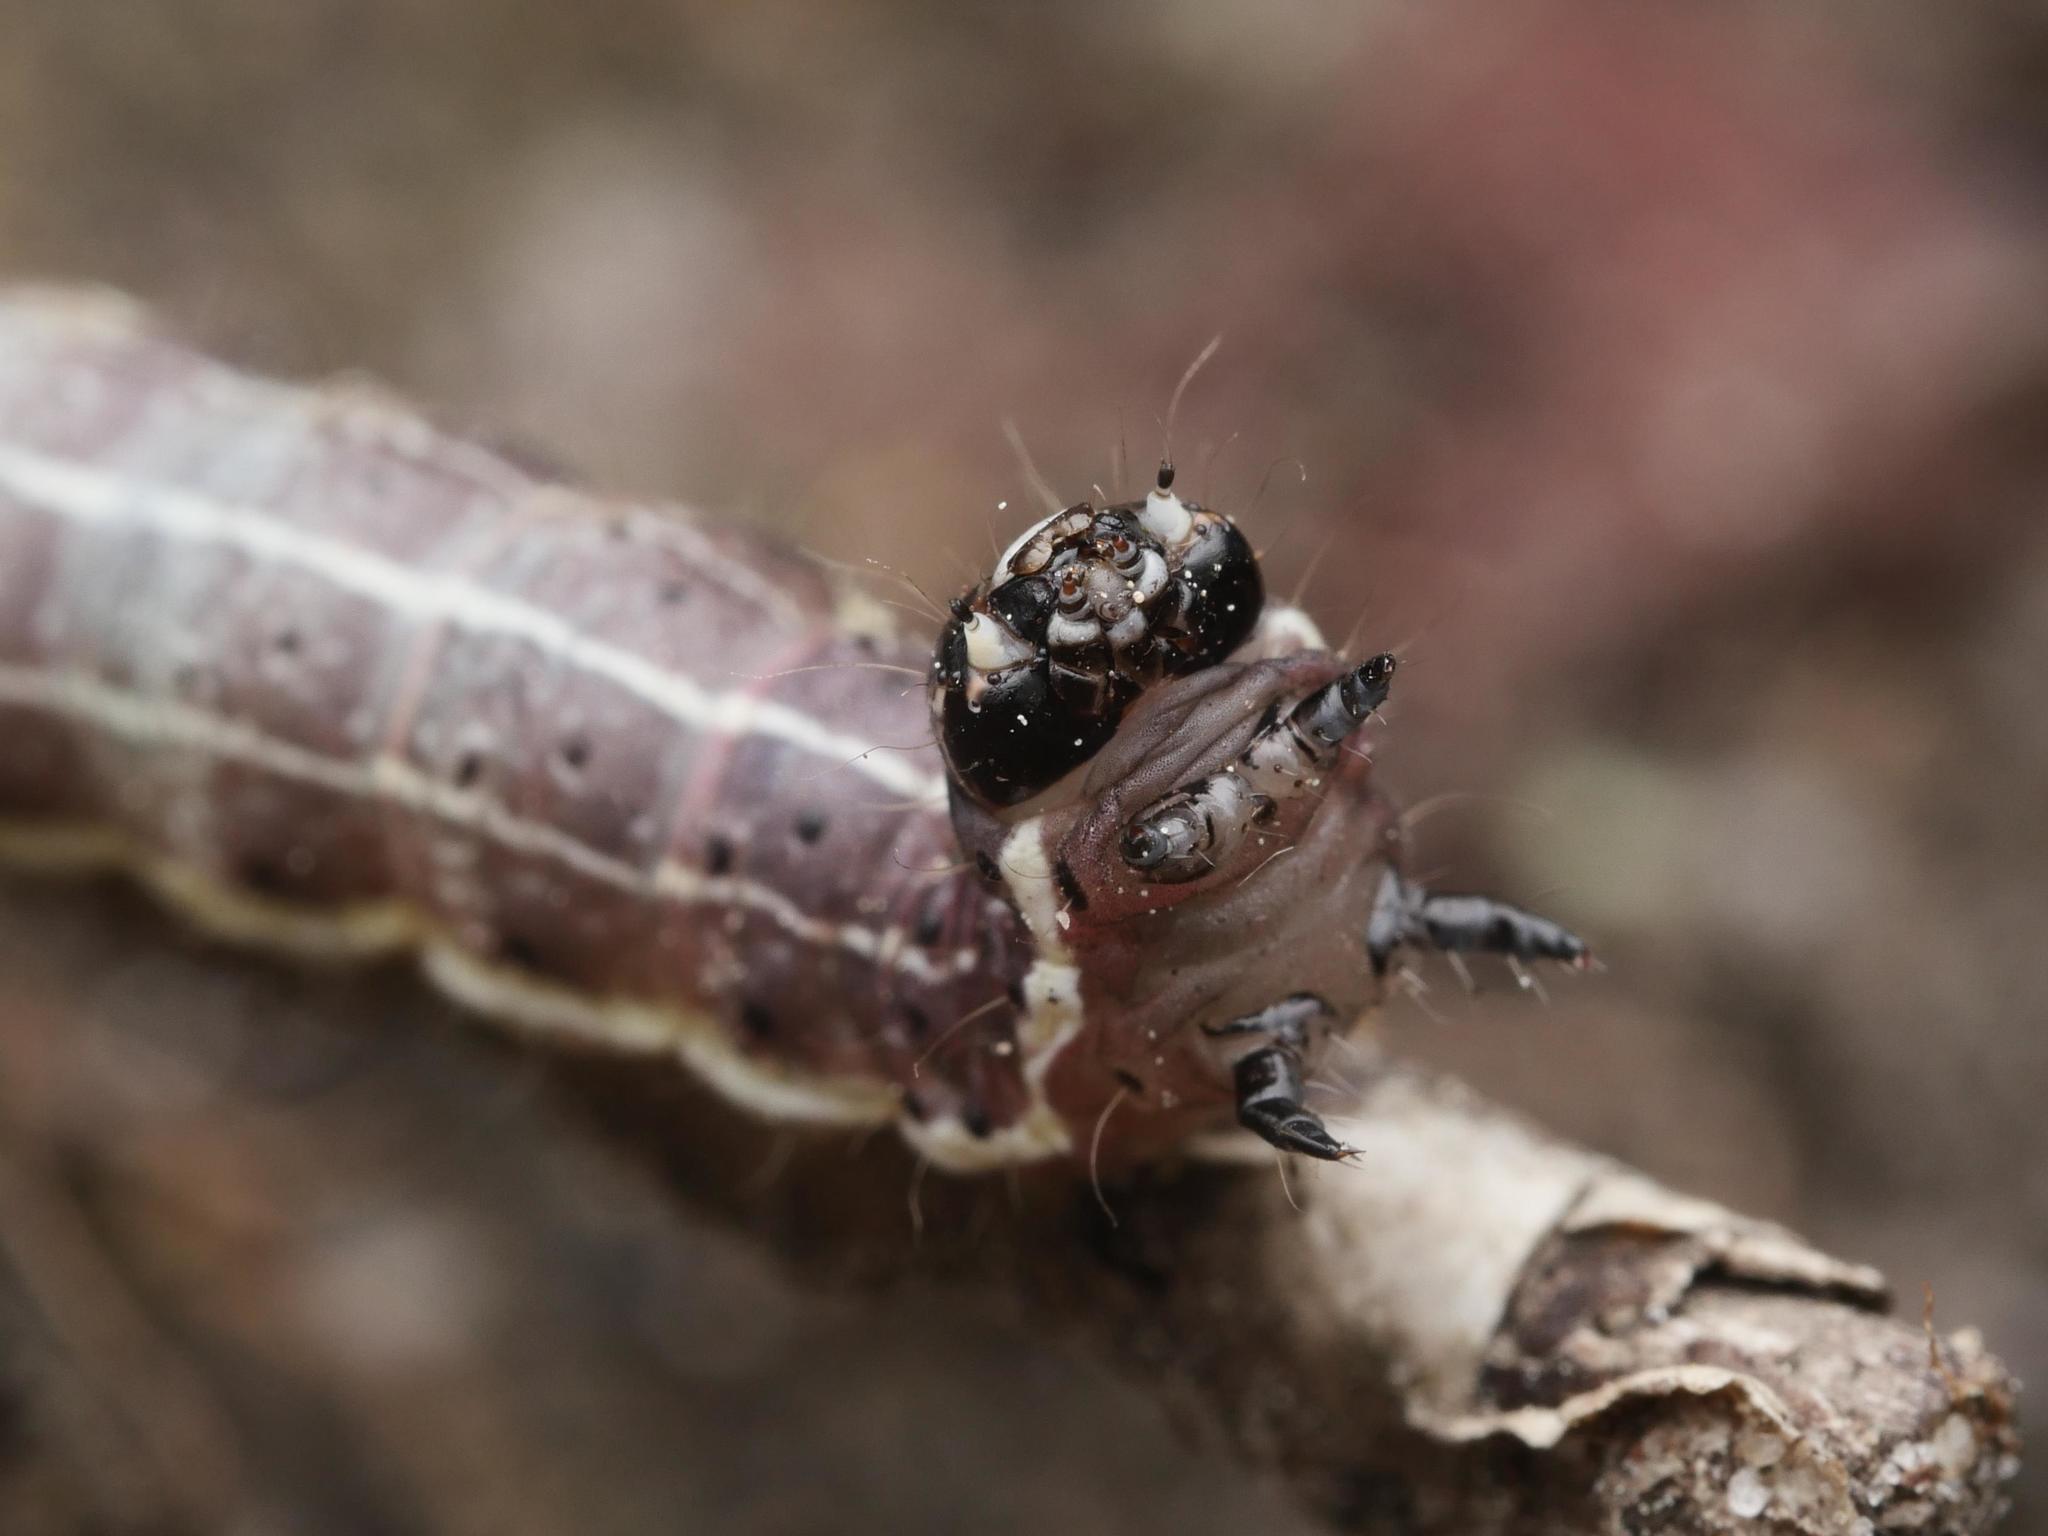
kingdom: Animalia
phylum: Arthropoda
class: Insecta
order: Lepidoptera
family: Noctuidae
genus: Orthosia
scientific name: Orthosia cruda
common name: Small quaker
